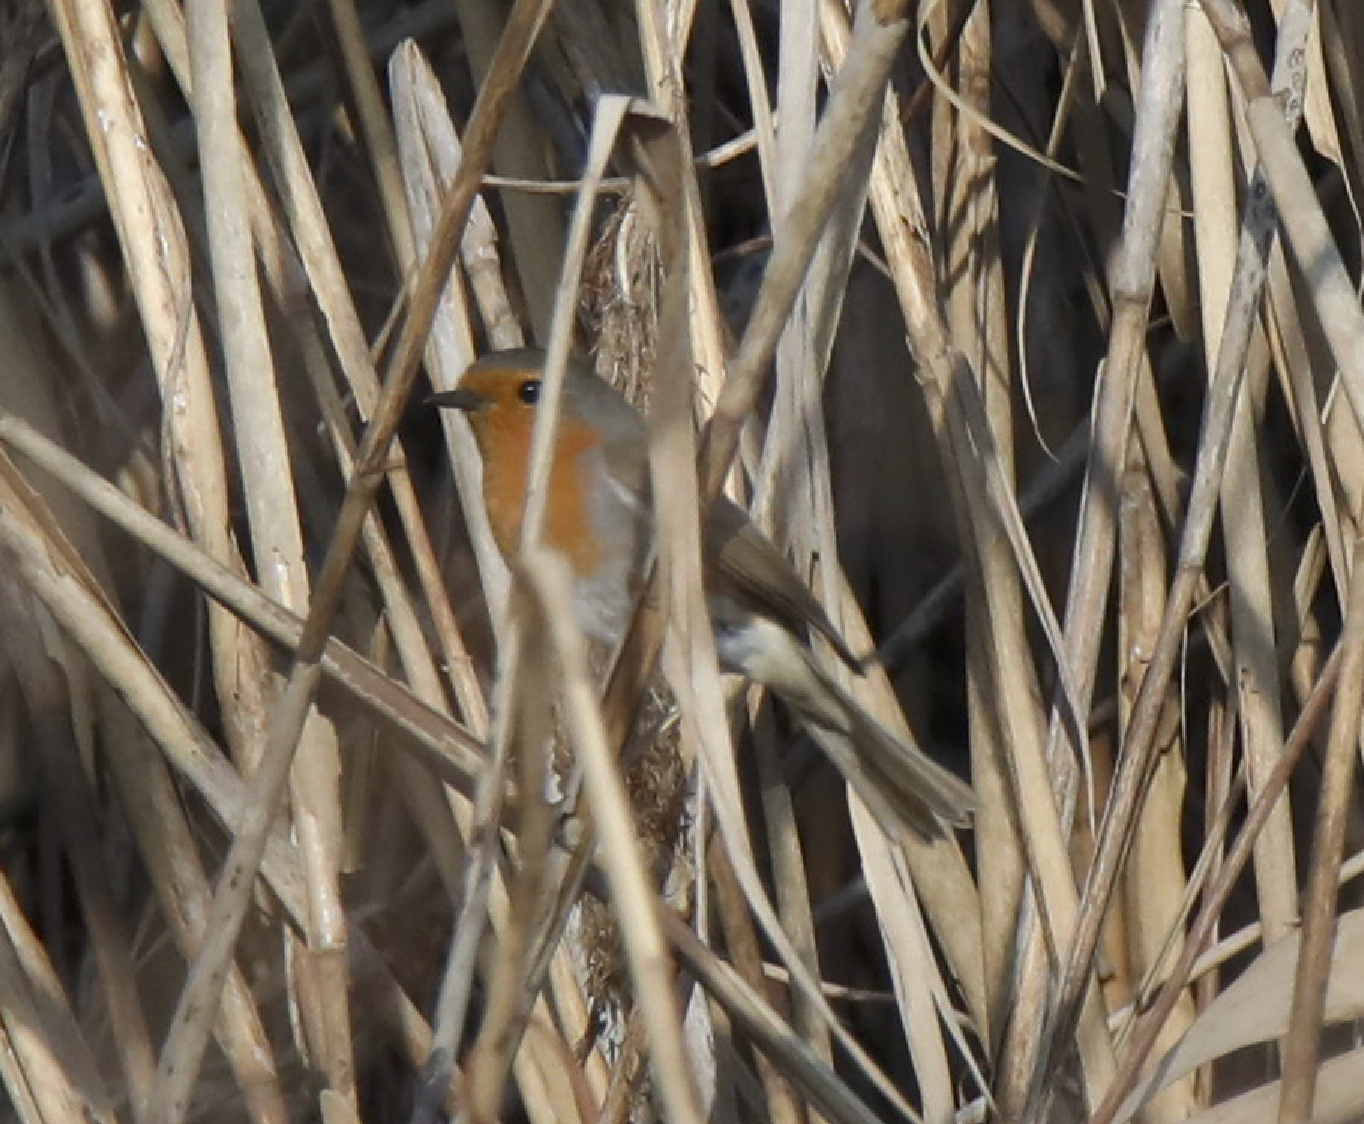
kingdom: Animalia
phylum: Chordata
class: Aves
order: Passeriformes
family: Muscicapidae
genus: Erithacus
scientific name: Erithacus rubecula
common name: European robin
